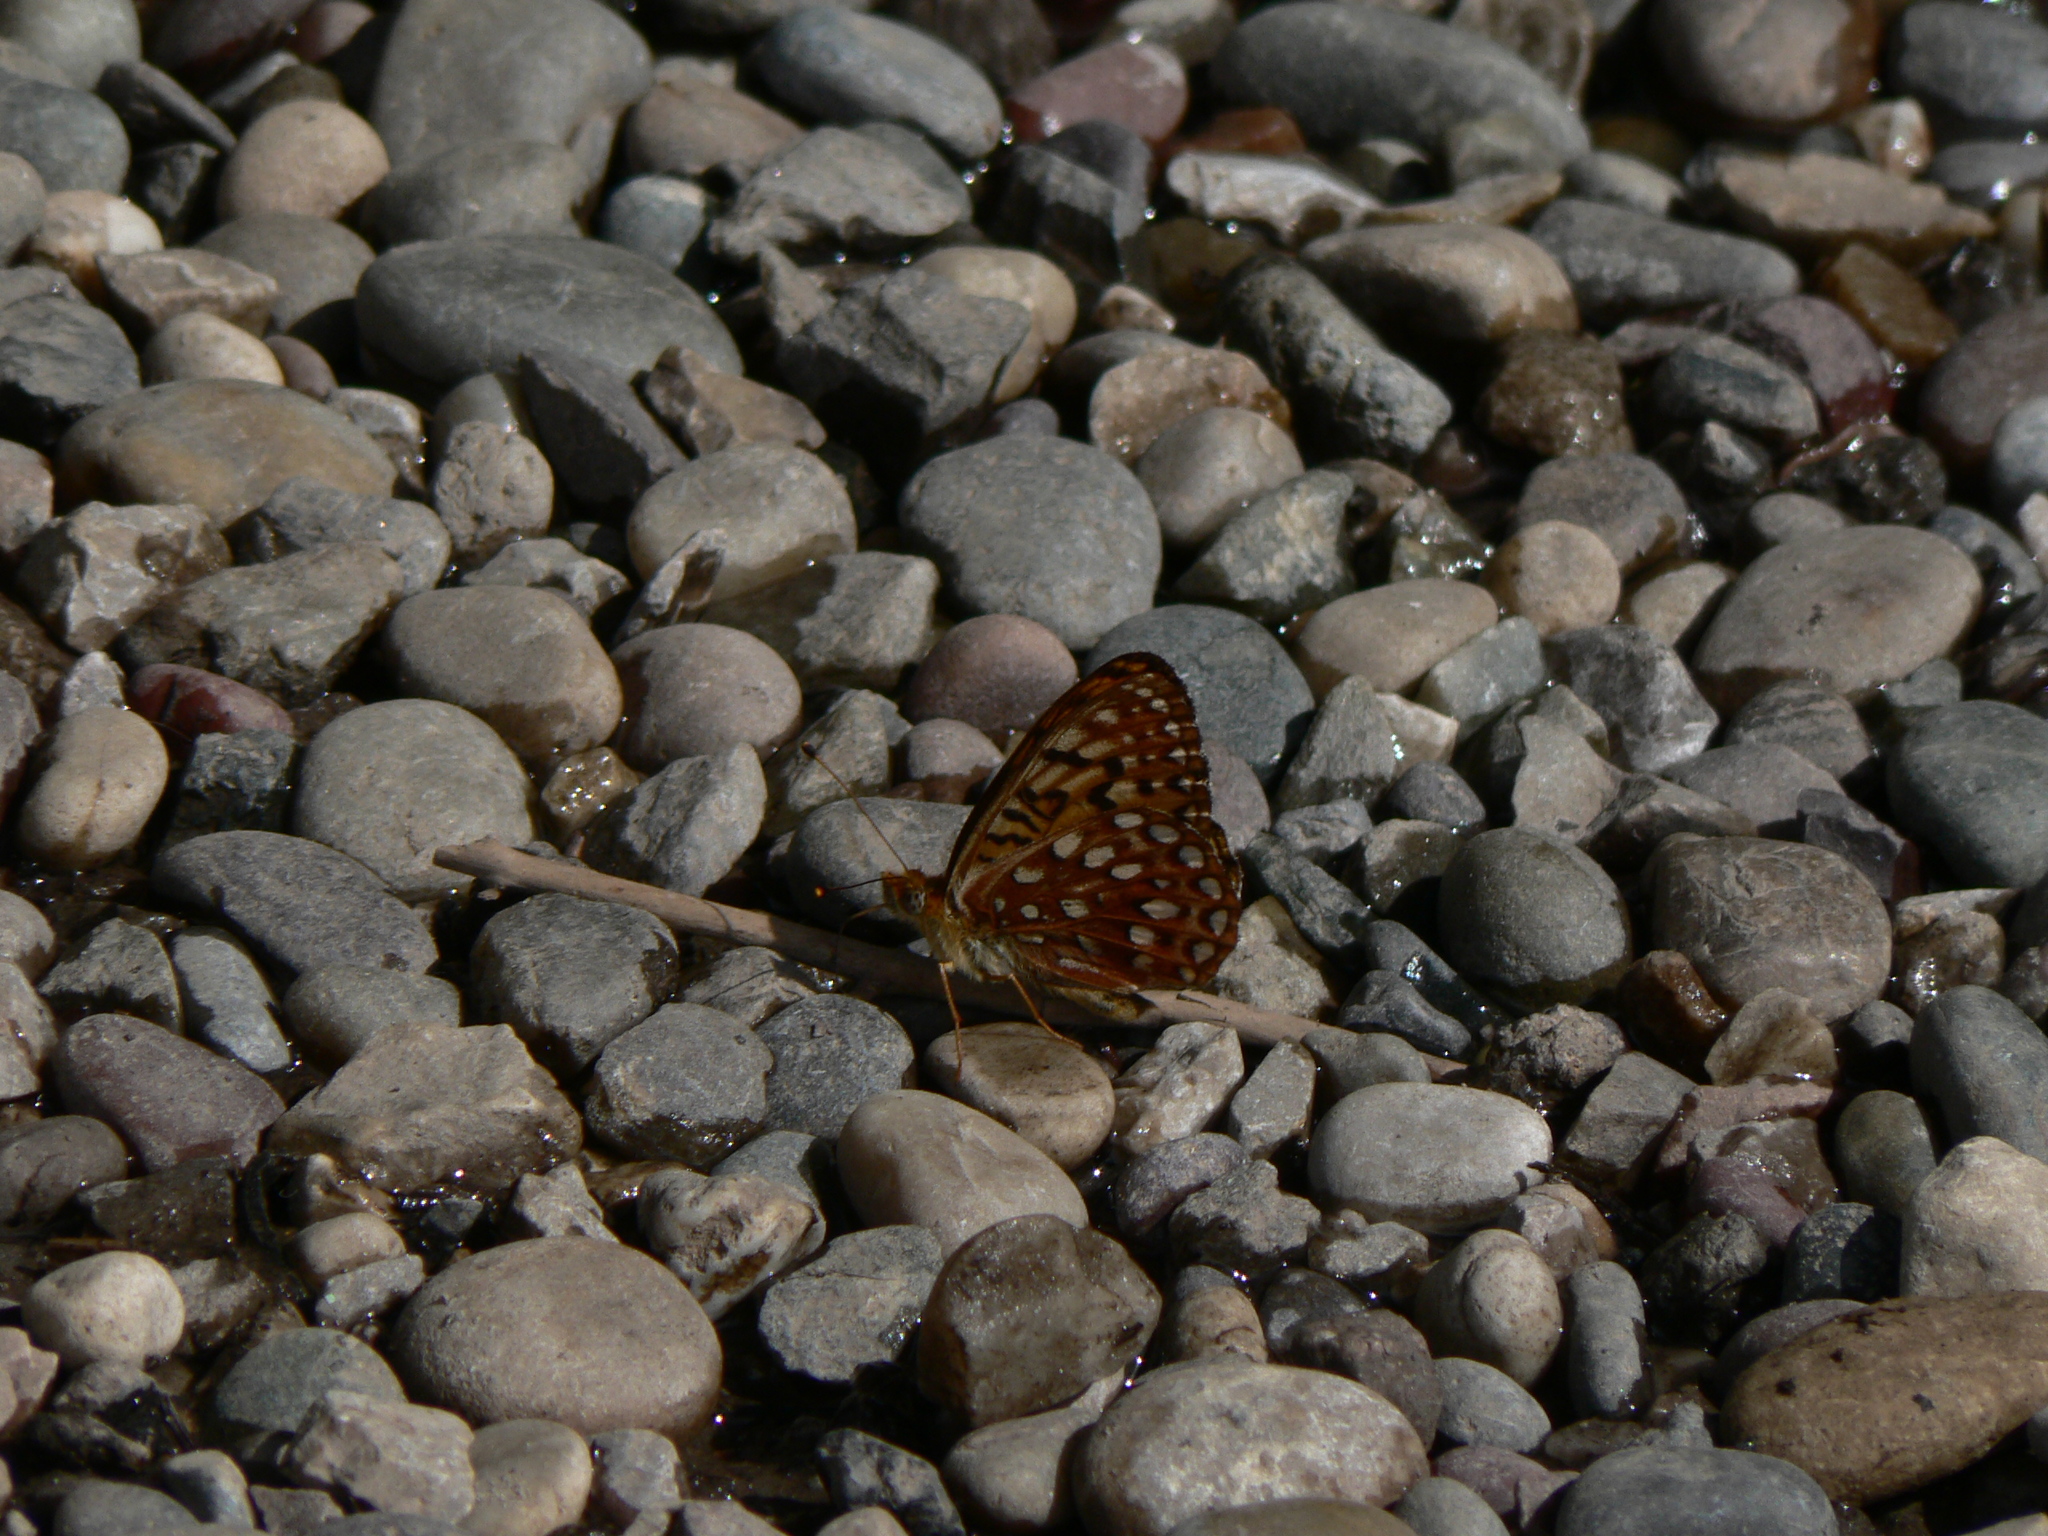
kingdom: Animalia
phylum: Arthropoda
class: Insecta
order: Lepidoptera
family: Nymphalidae
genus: Speyeria
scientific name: Speyeria atlantis
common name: Atlantis fritillary
